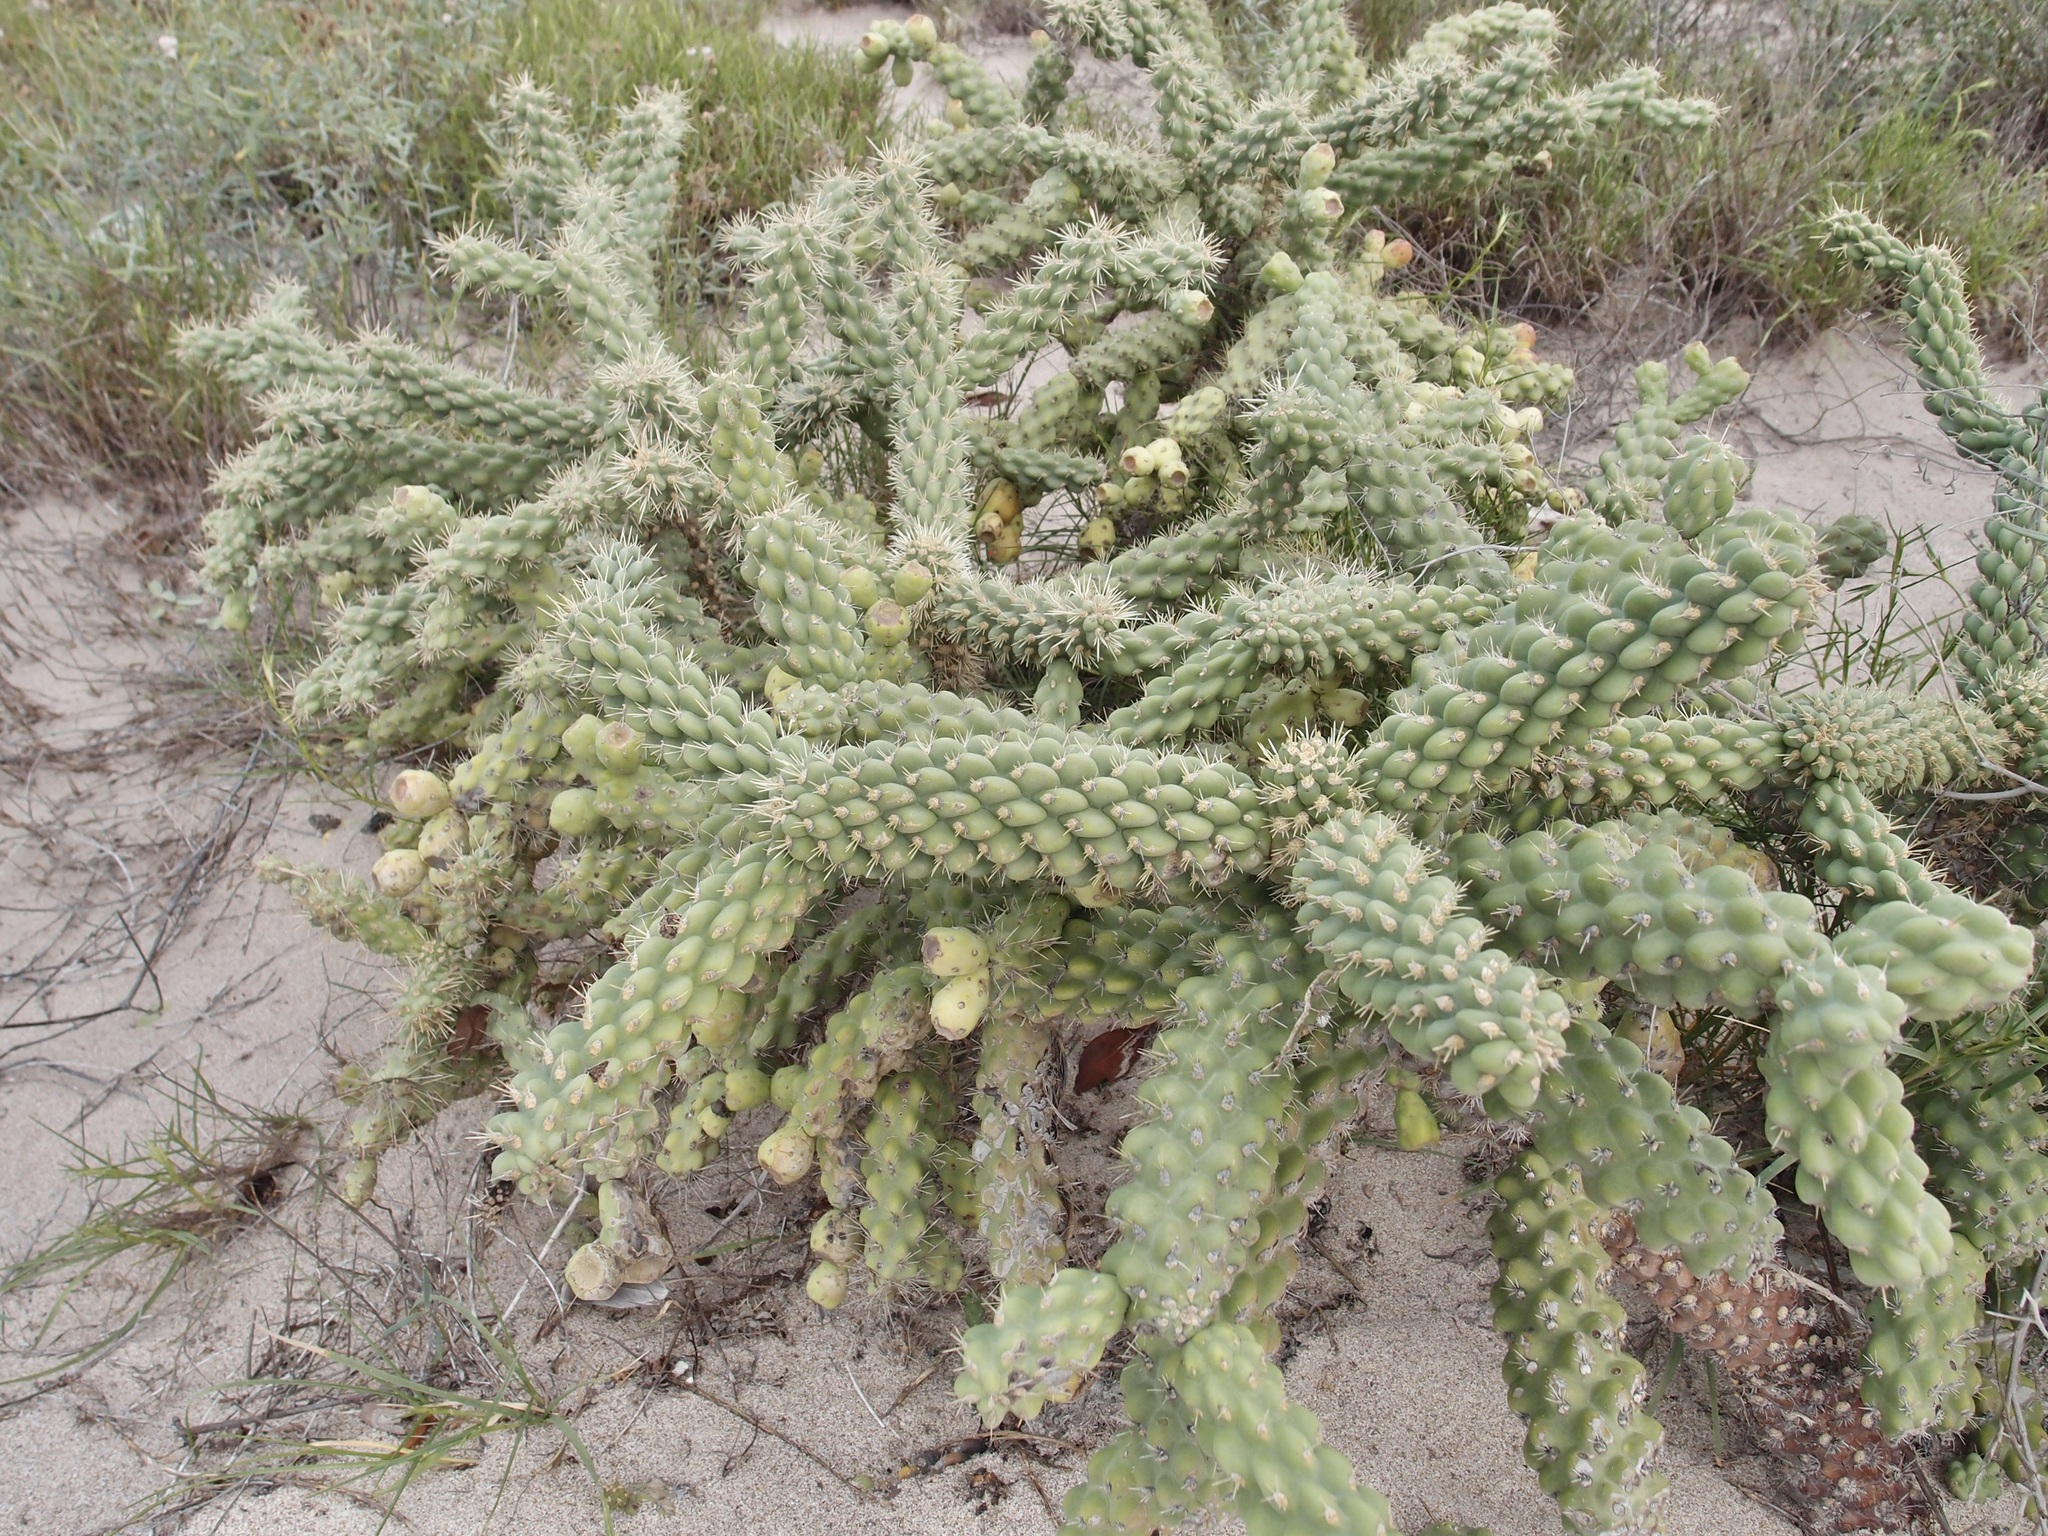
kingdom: Plantae
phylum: Tracheophyta
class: Magnoliopsida
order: Caryophyllales
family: Cactaceae
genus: Cylindropuntia
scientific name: Cylindropuntia fulgida
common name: Jumping cholla
